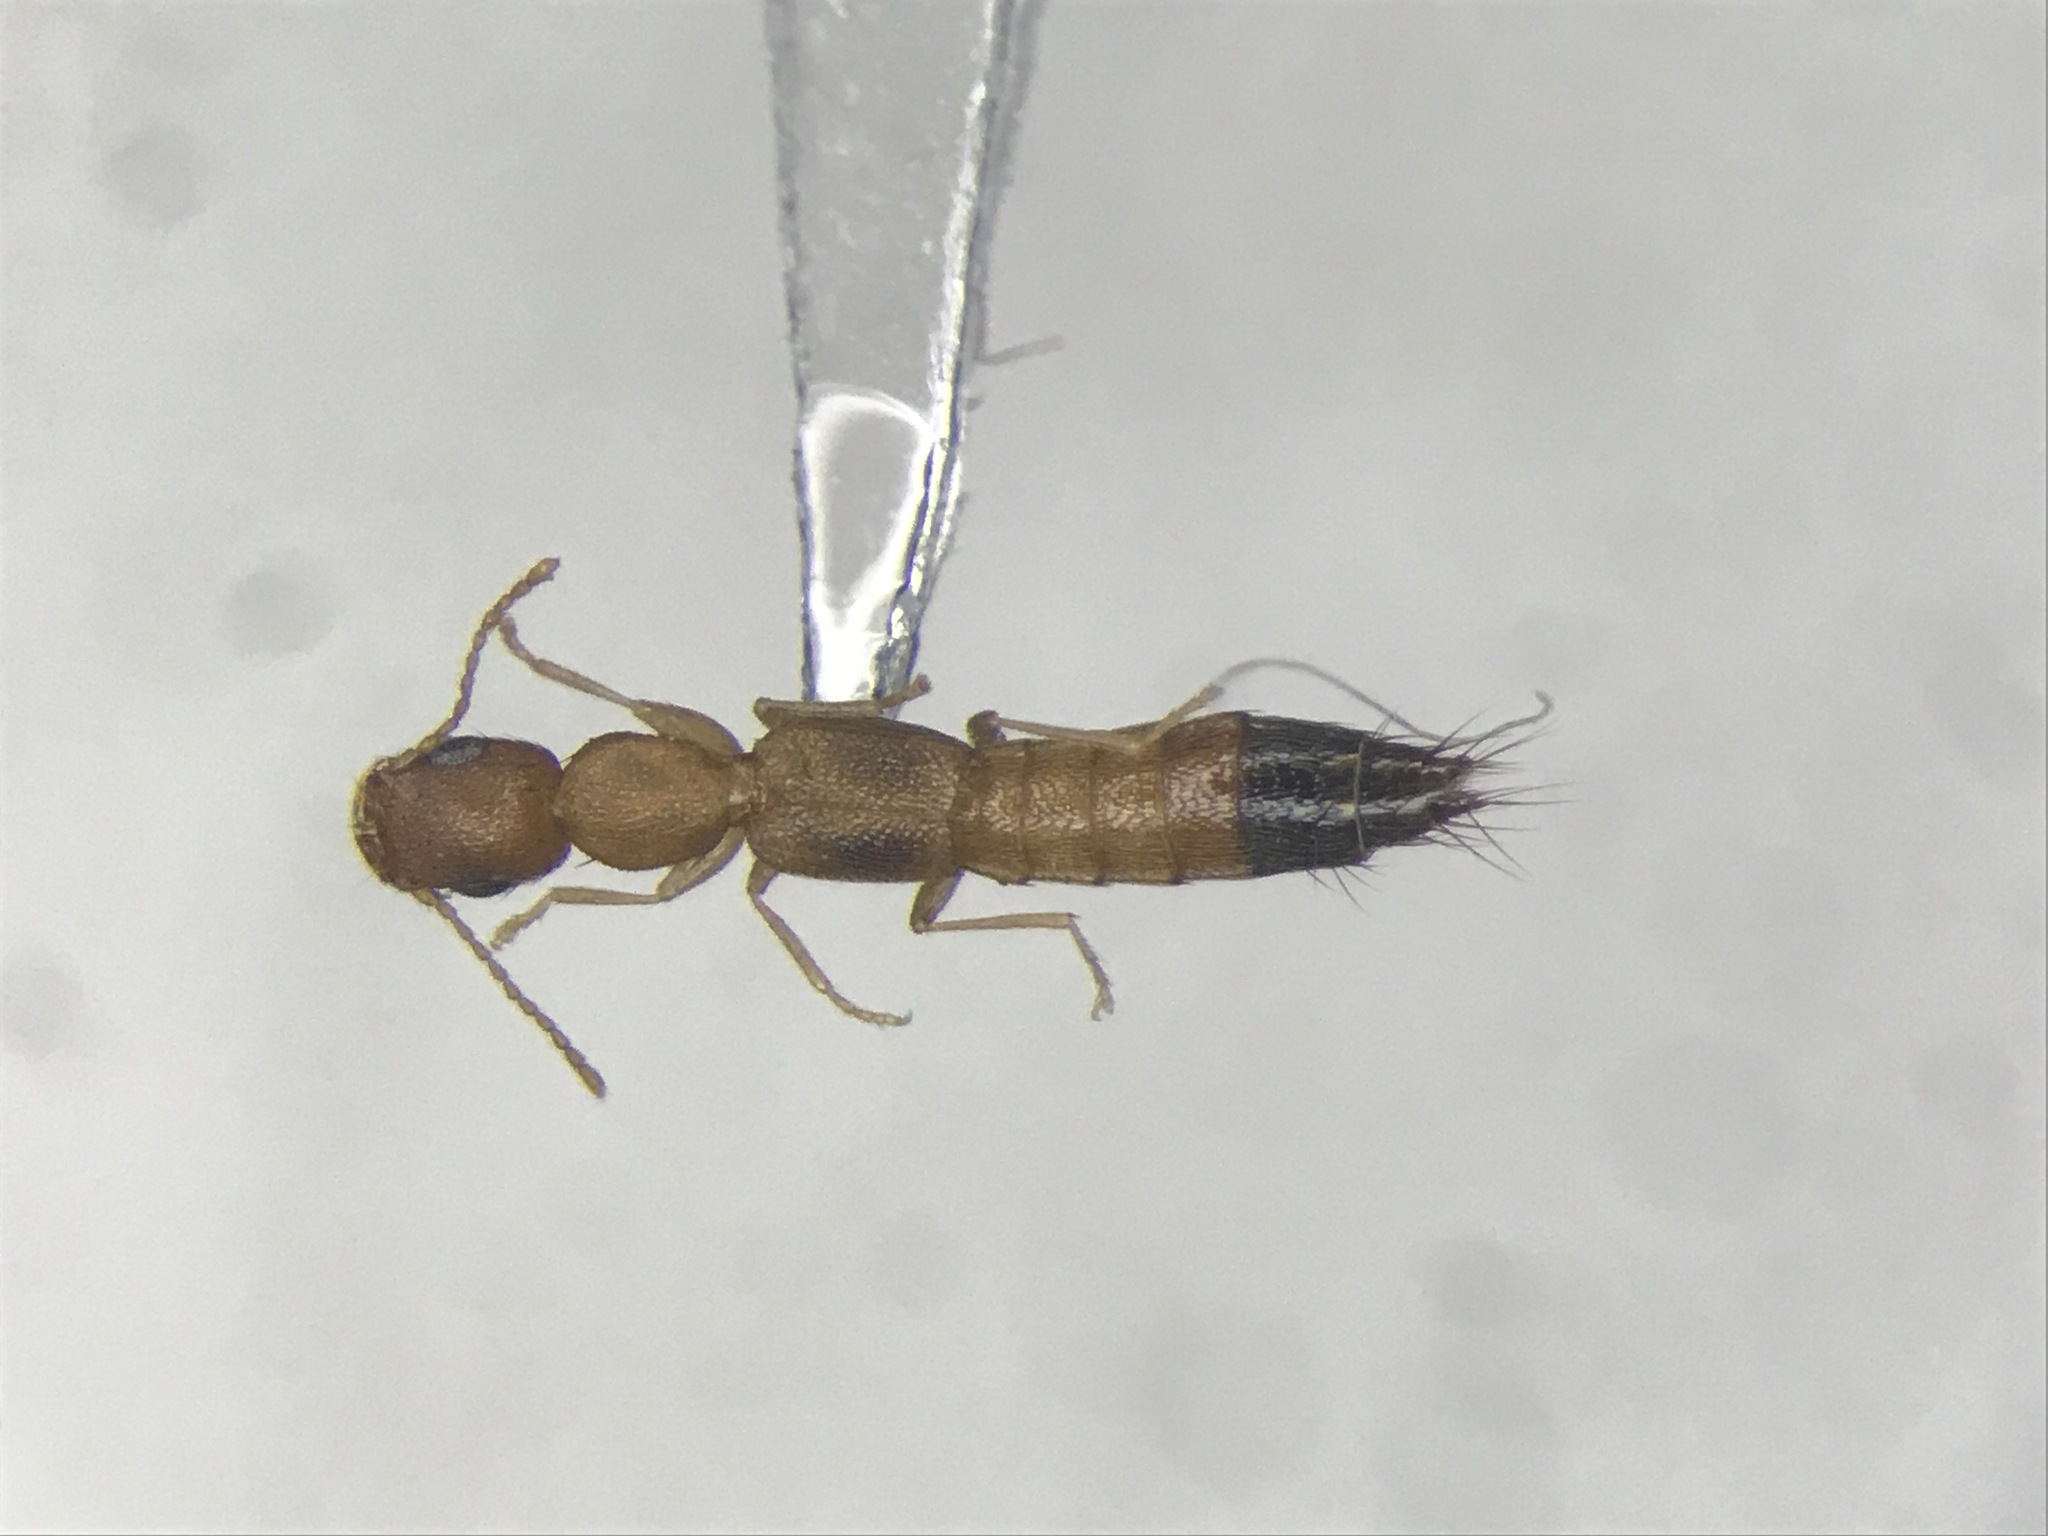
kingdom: Animalia
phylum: Arthropoda
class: Insecta
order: Coleoptera
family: Staphylinidae
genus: Astenus
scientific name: Astenus discopunctatus
